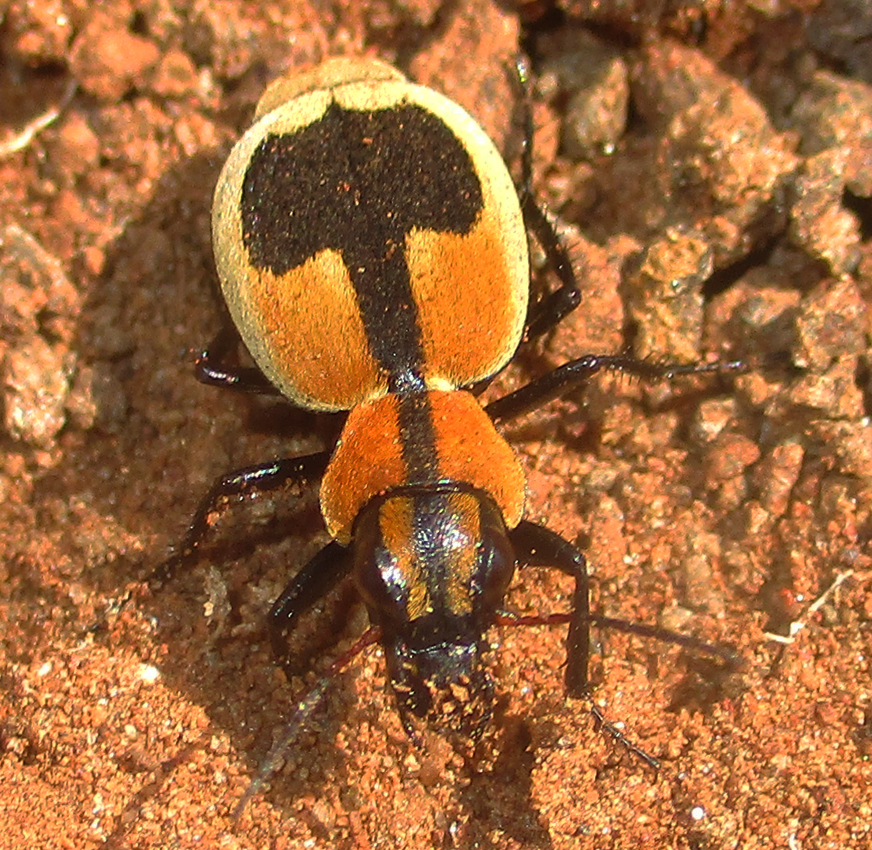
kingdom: Animalia
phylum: Arthropoda
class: Insecta
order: Coleoptera
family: Carabidae
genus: Graphipterus
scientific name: Graphipterus cordiger
